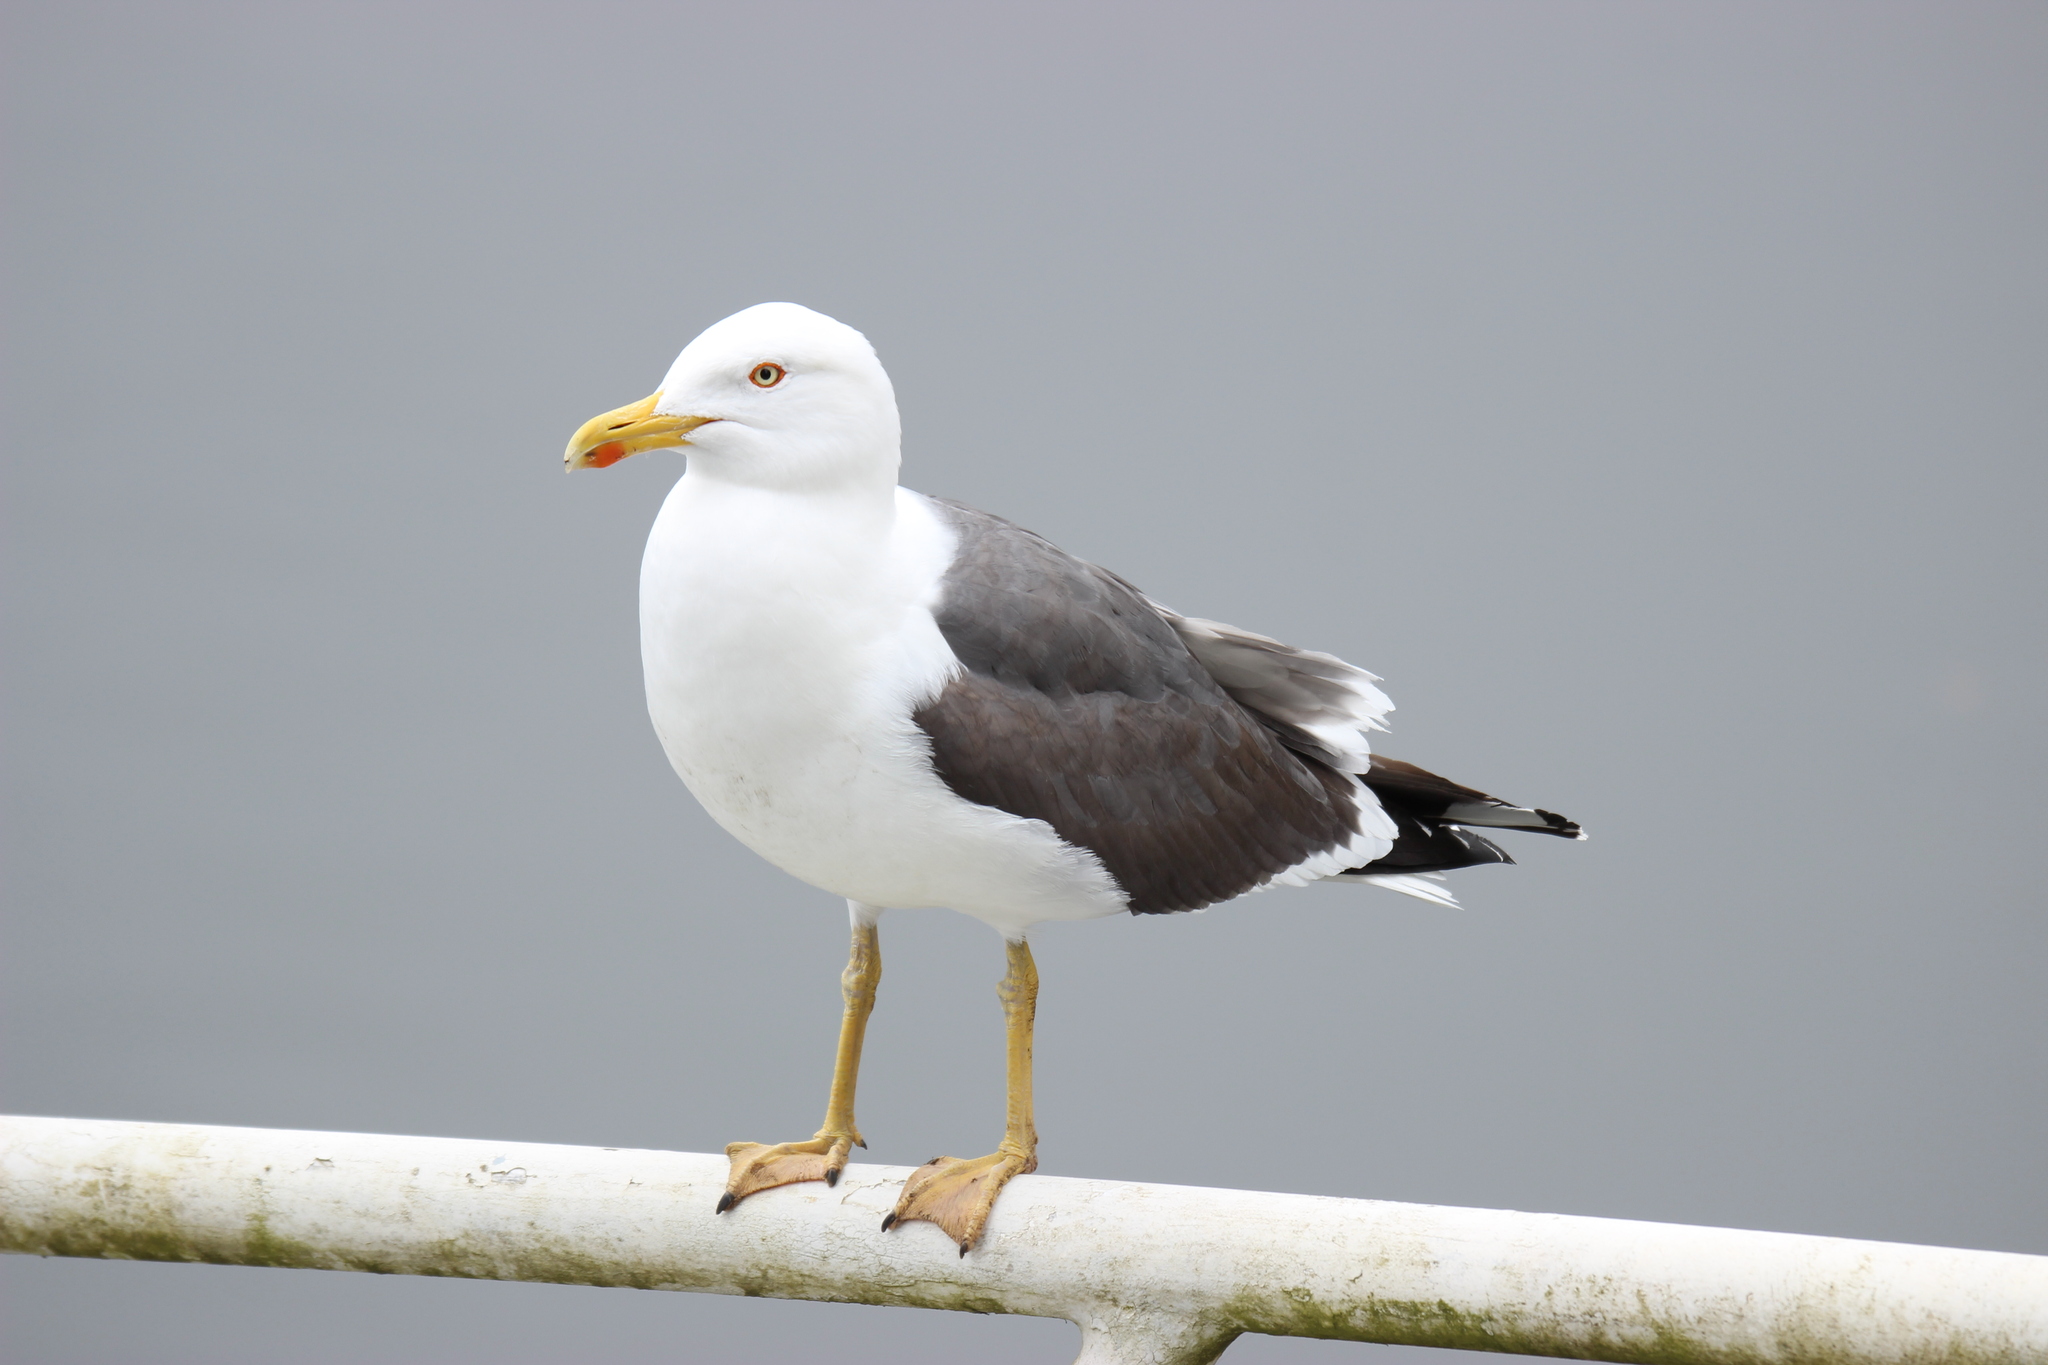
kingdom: Animalia
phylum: Chordata
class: Aves
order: Charadriiformes
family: Laridae
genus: Larus
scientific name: Larus fuscus
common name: Lesser black-backed gull
